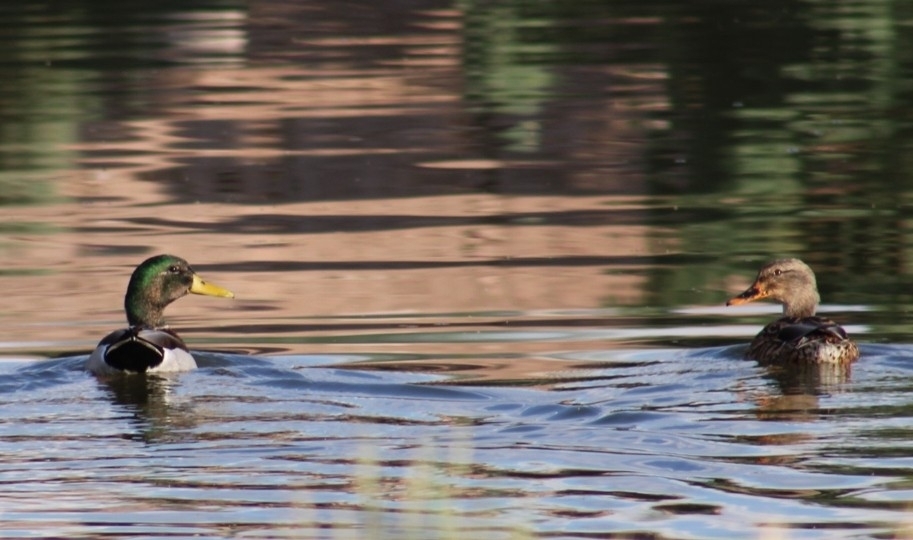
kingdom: Animalia
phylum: Chordata
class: Aves
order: Anseriformes
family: Anatidae
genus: Anas
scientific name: Anas platyrhynchos
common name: Mallard
